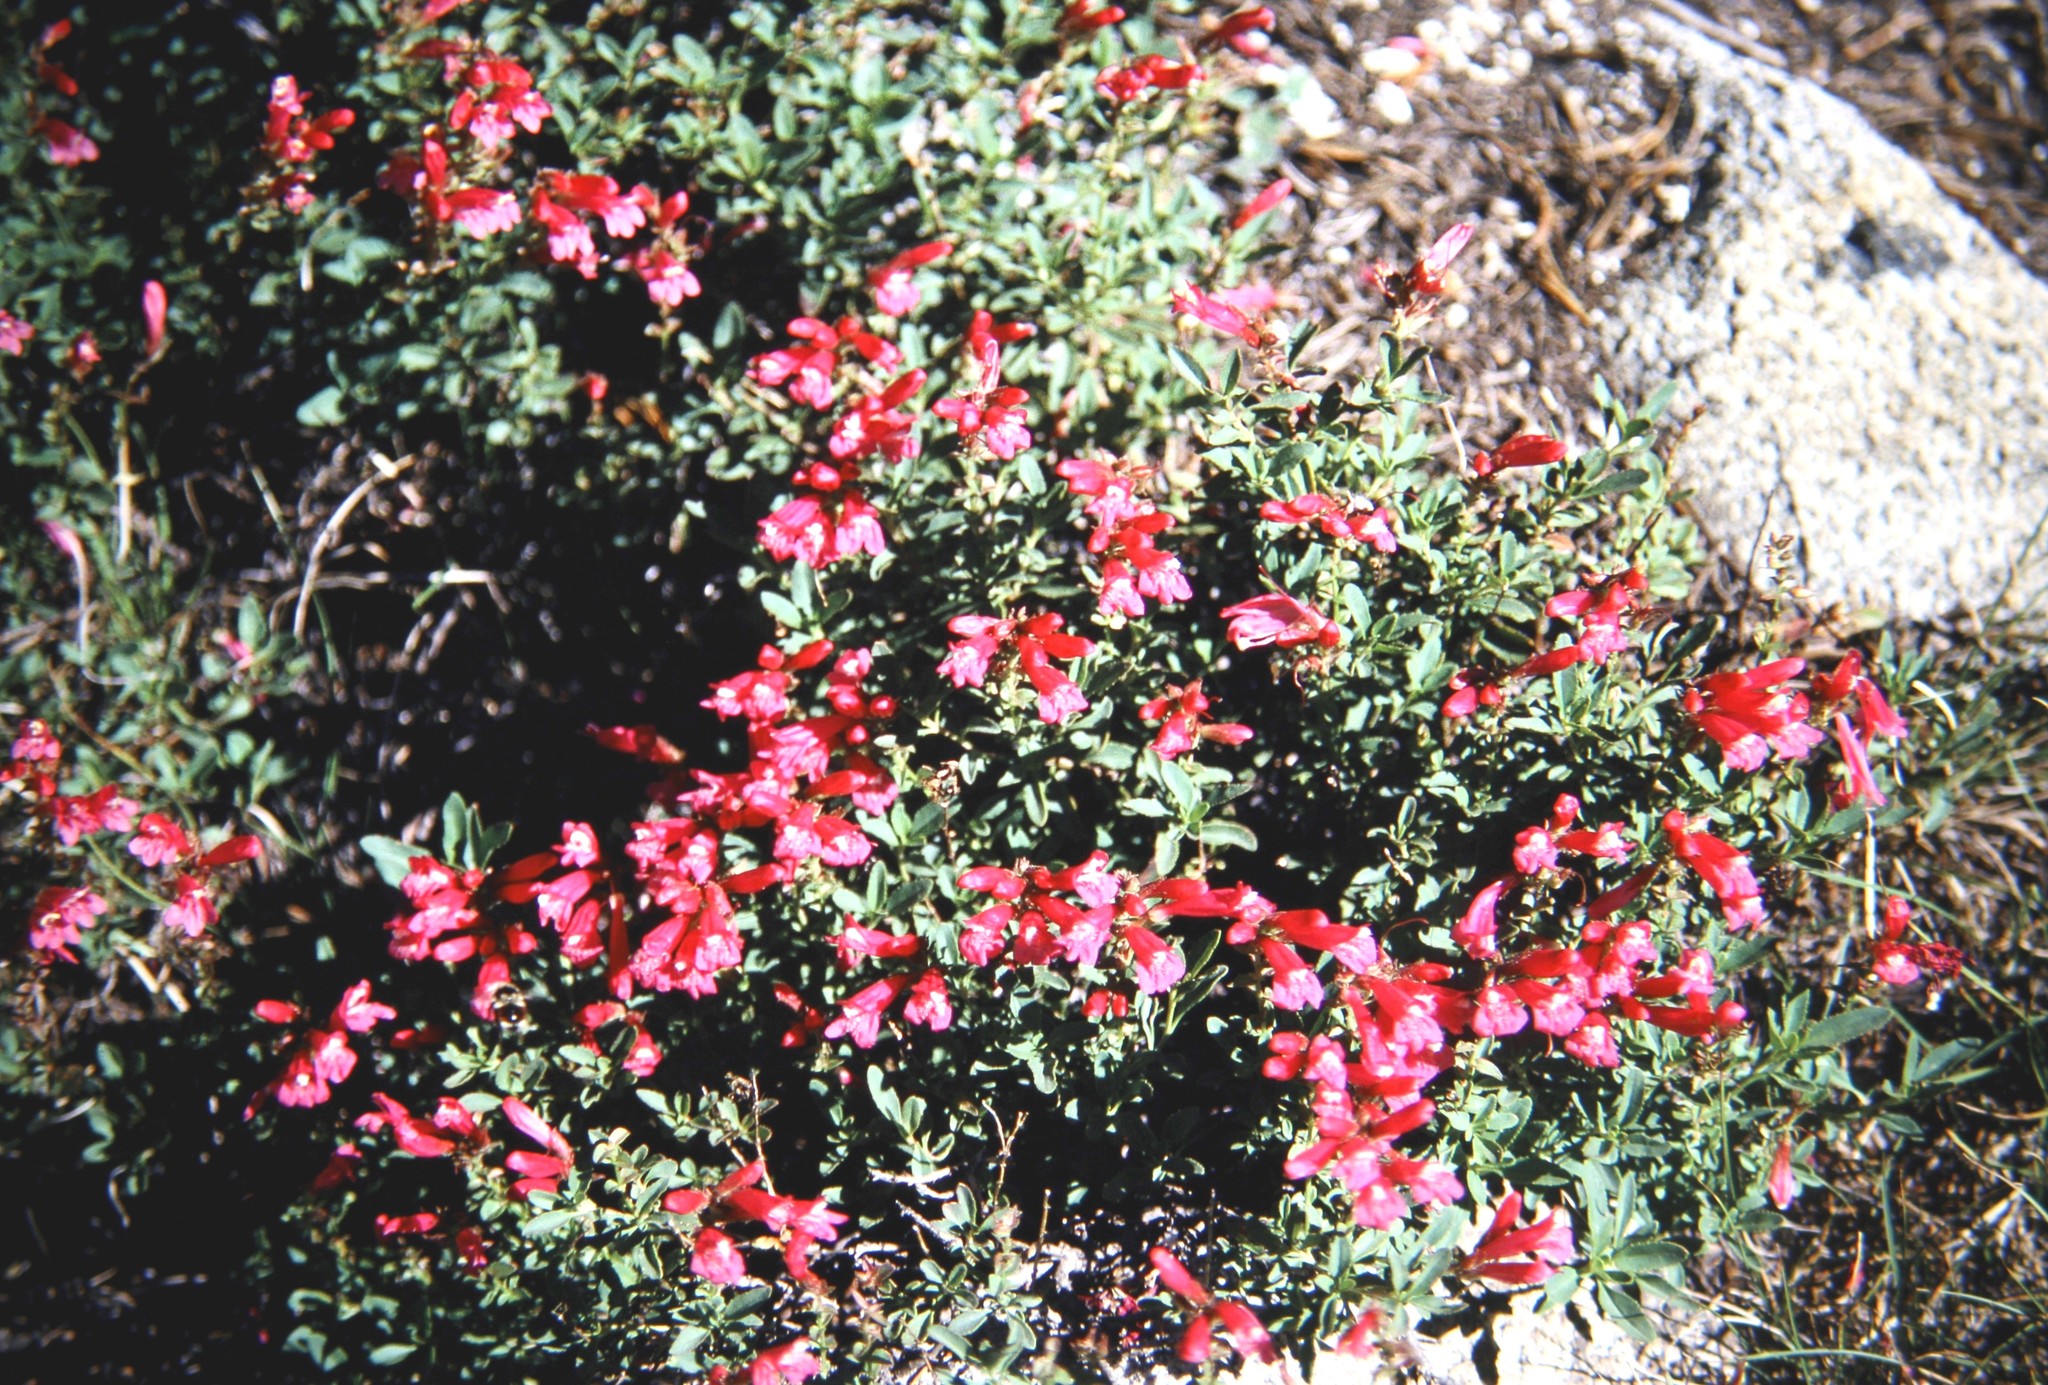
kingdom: Plantae
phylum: Tracheophyta
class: Magnoliopsida
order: Lamiales
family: Plantaginaceae
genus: Penstemon
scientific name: Penstemon newberryi
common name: Mountain-pride
